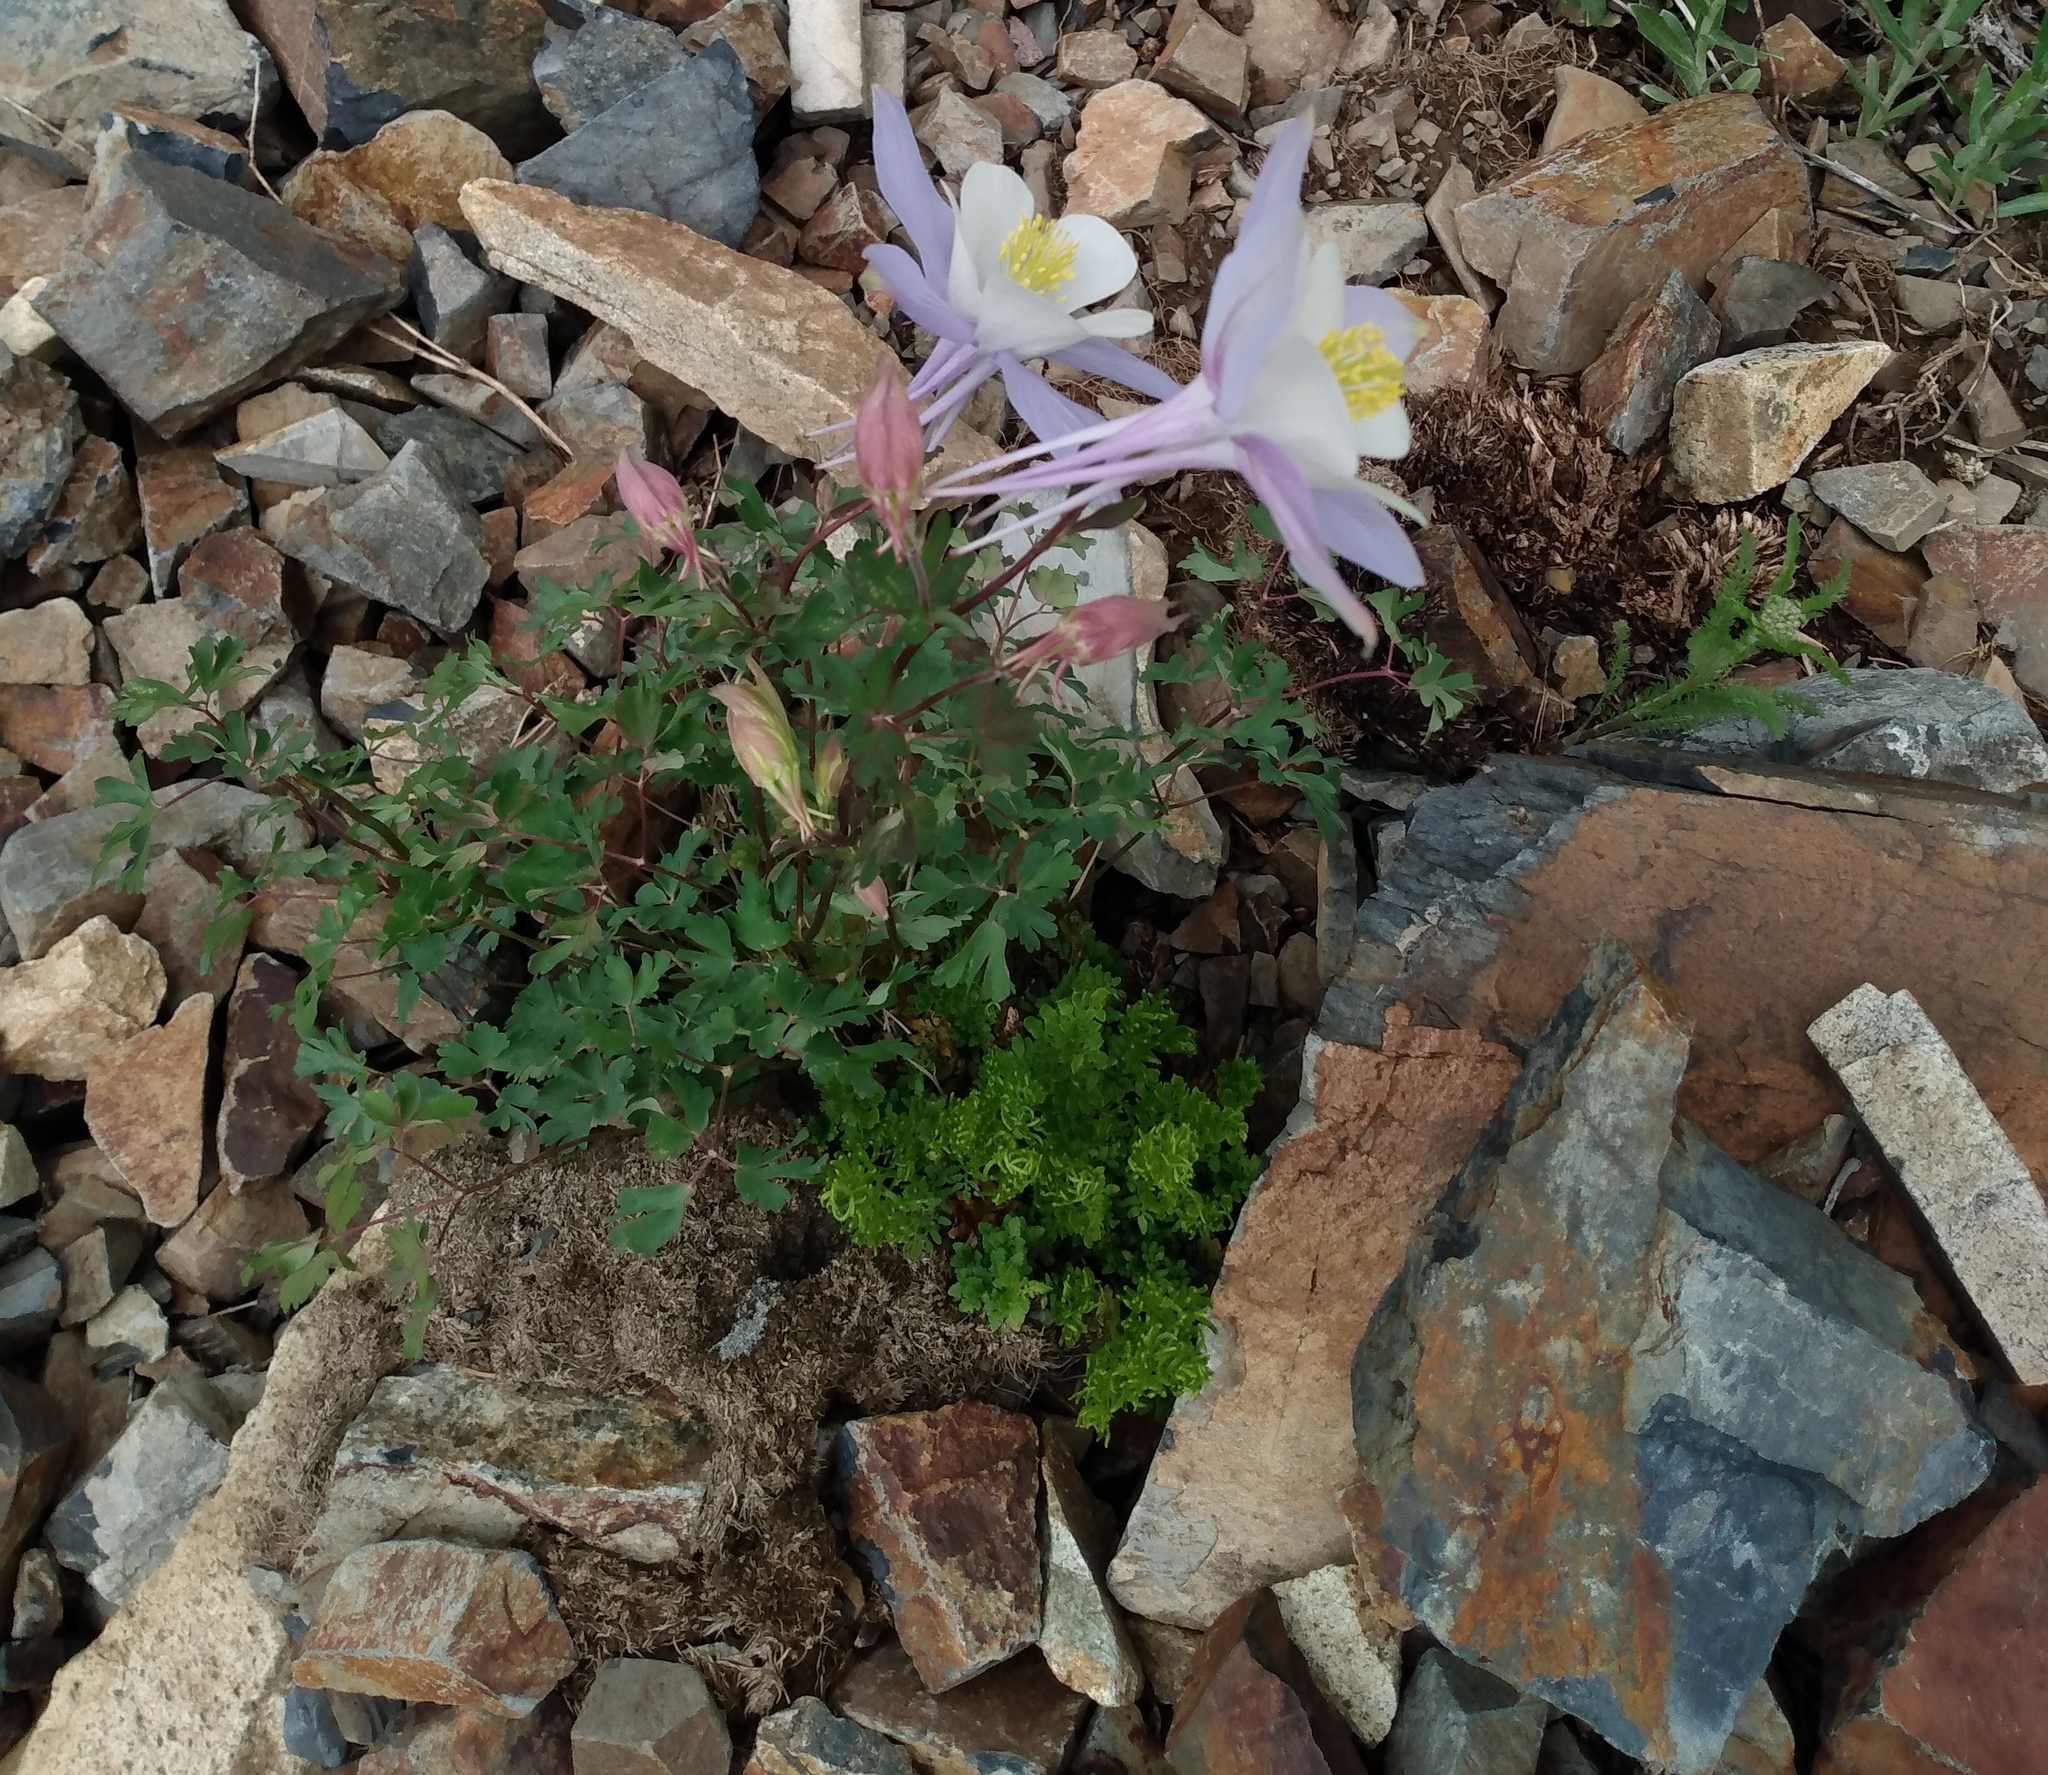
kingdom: Plantae
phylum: Tracheophyta
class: Magnoliopsida
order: Ranunculales
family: Ranunculaceae
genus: Aquilegia
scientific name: Aquilegia coerulea
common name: Rocky mountain columbine
